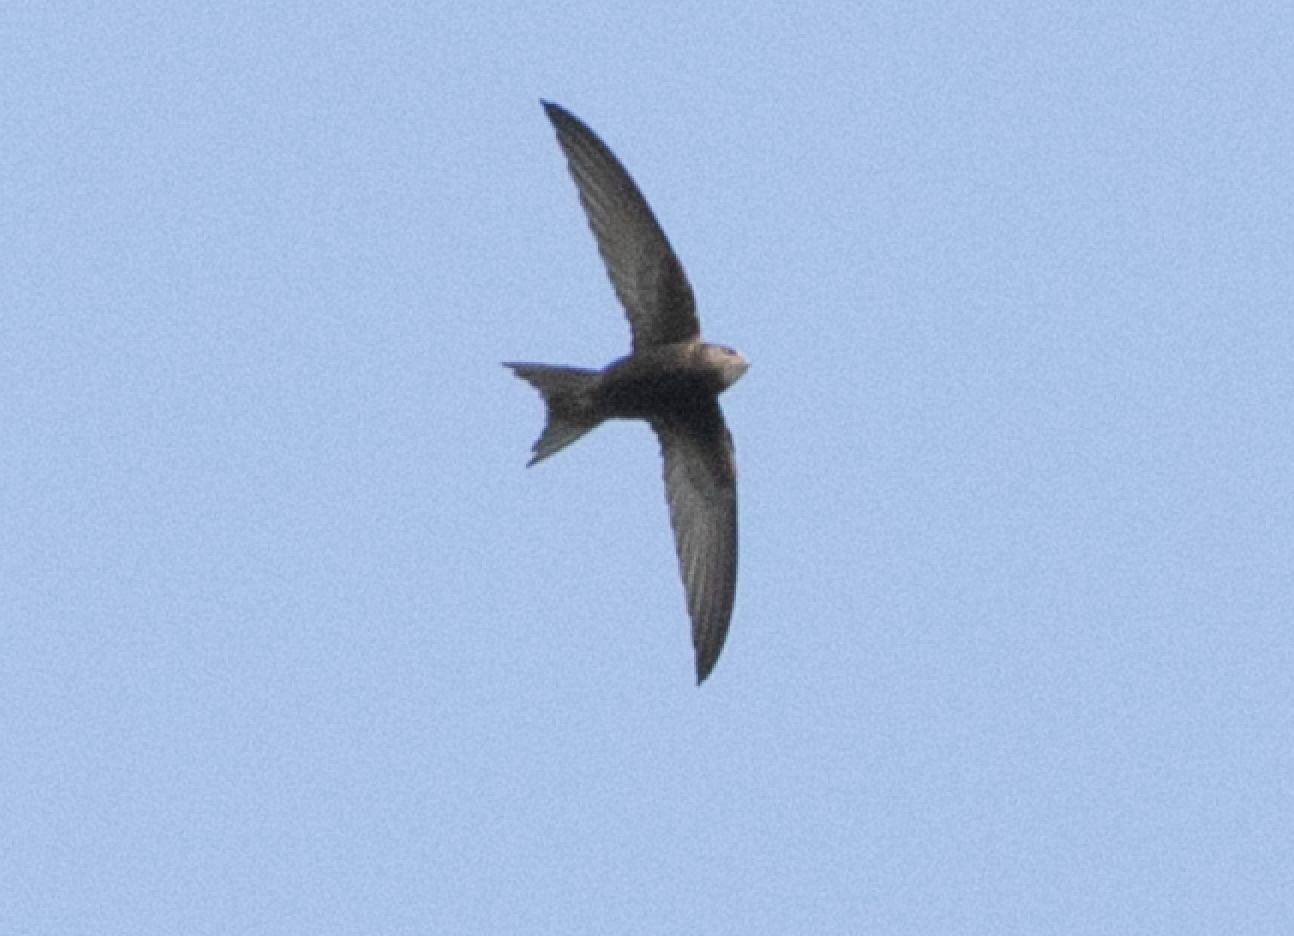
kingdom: Animalia
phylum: Chordata
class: Aves
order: Apodiformes
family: Apodidae
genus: Apus
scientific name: Apus apus
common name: Common swift
